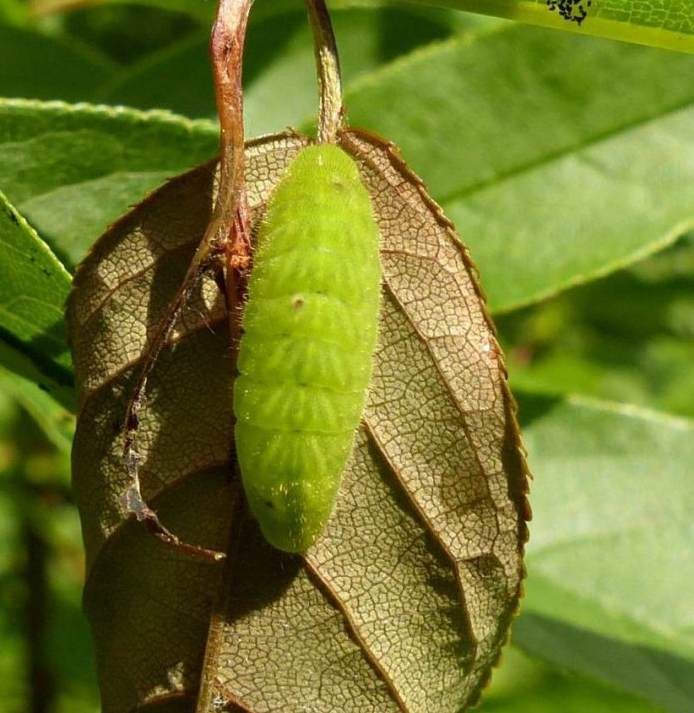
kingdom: Animalia
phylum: Arthropoda
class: Insecta
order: Lepidoptera
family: Lycaenidae
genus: Satyrium
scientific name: Satyrium liparops
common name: Striped hairstreak
